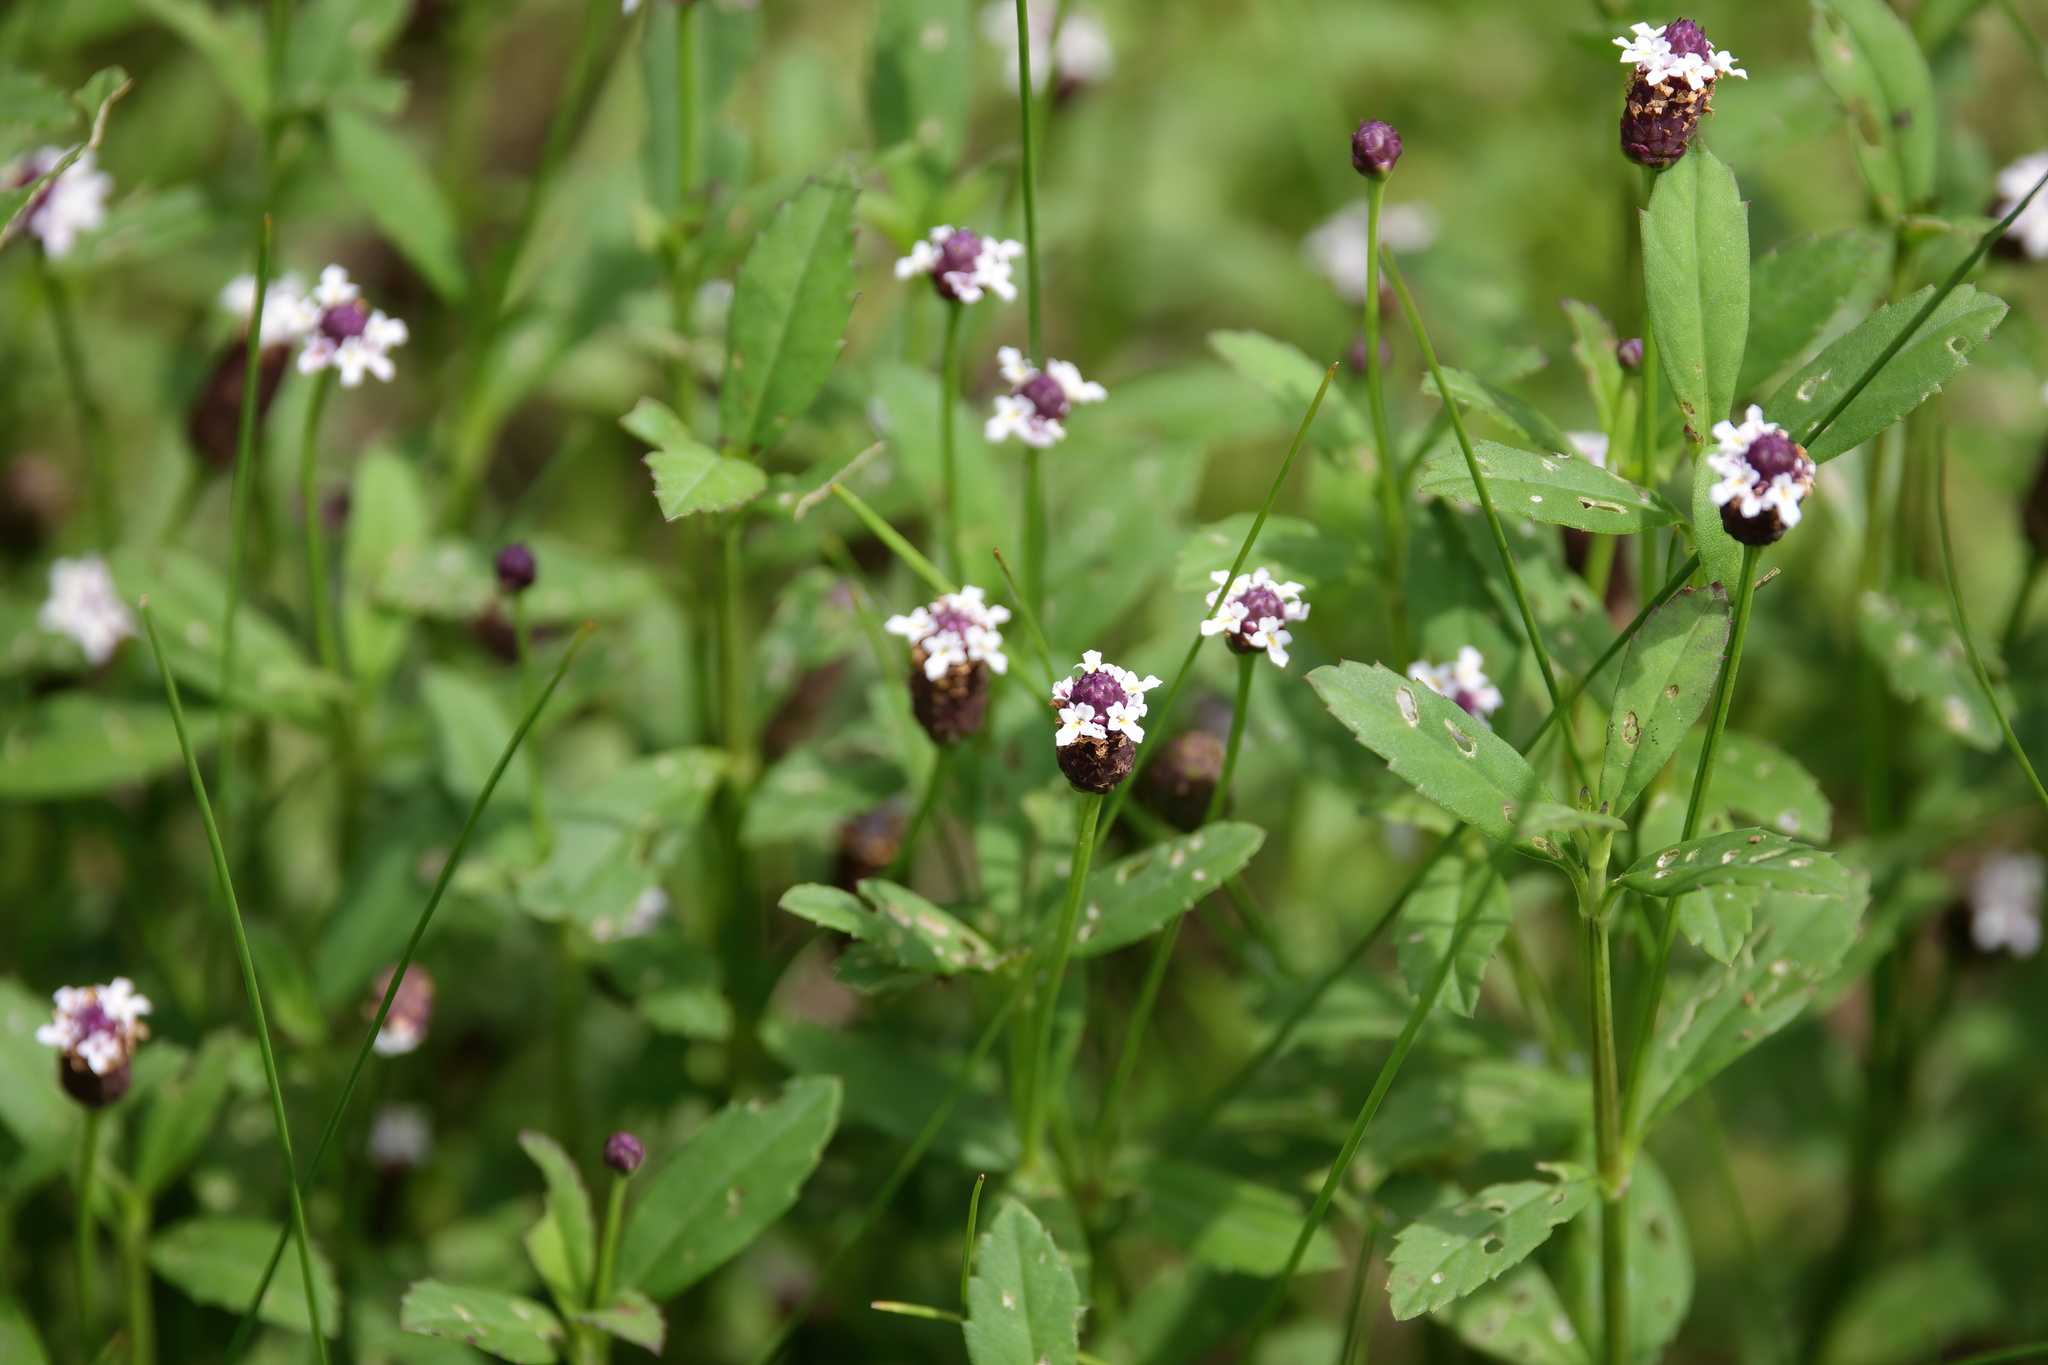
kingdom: Plantae
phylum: Tracheophyta
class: Magnoliopsida
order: Lamiales
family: Verbenaceae
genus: Phyla
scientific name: Phyla nodiflora
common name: Frogfruit
